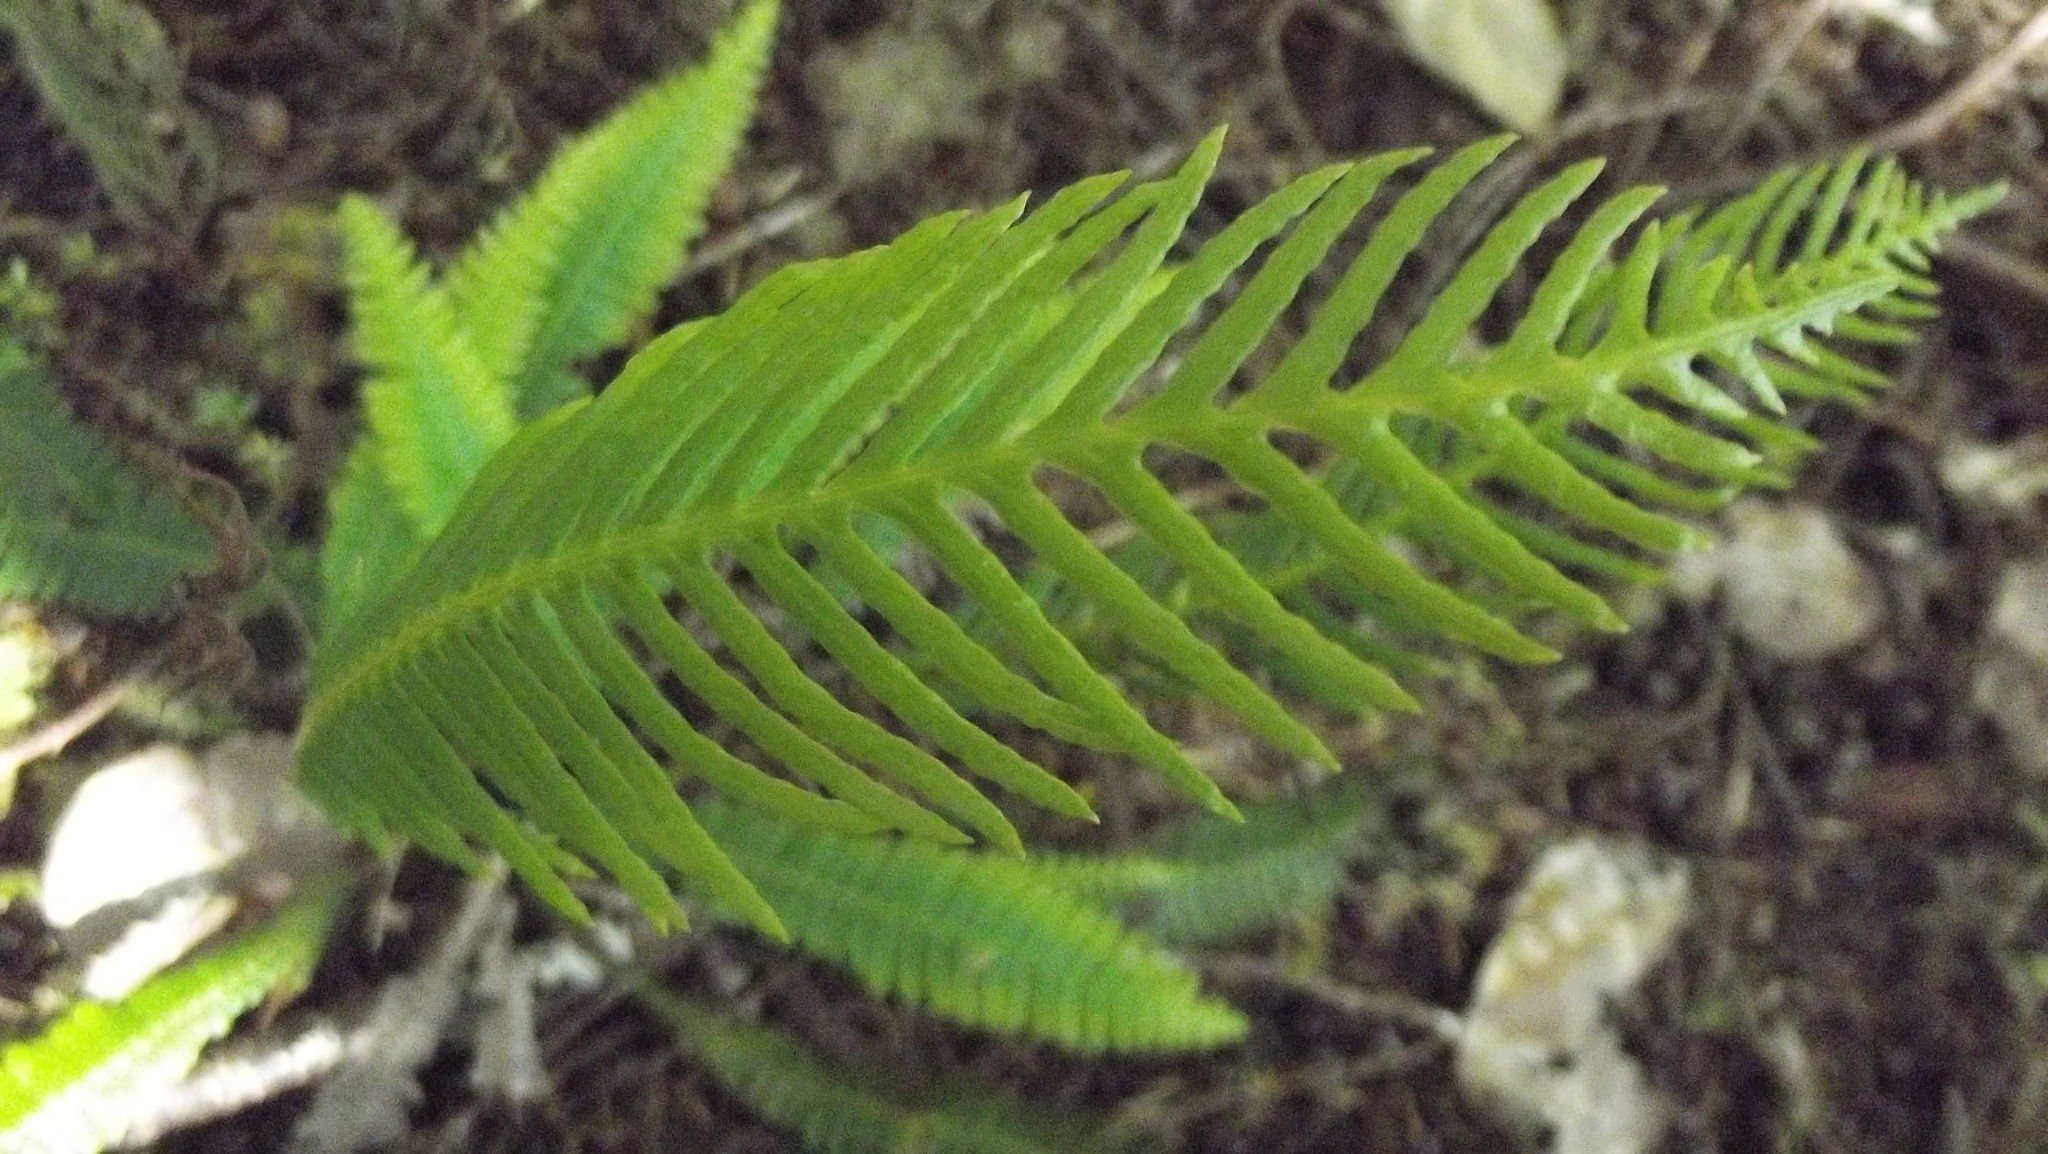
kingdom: Plantae
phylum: Tracheophyta
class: Polypodiopsida
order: Polypodiales
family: Blechnaceae
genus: Struthiopteris
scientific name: Struthiopteris spicant
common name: Deer fern
